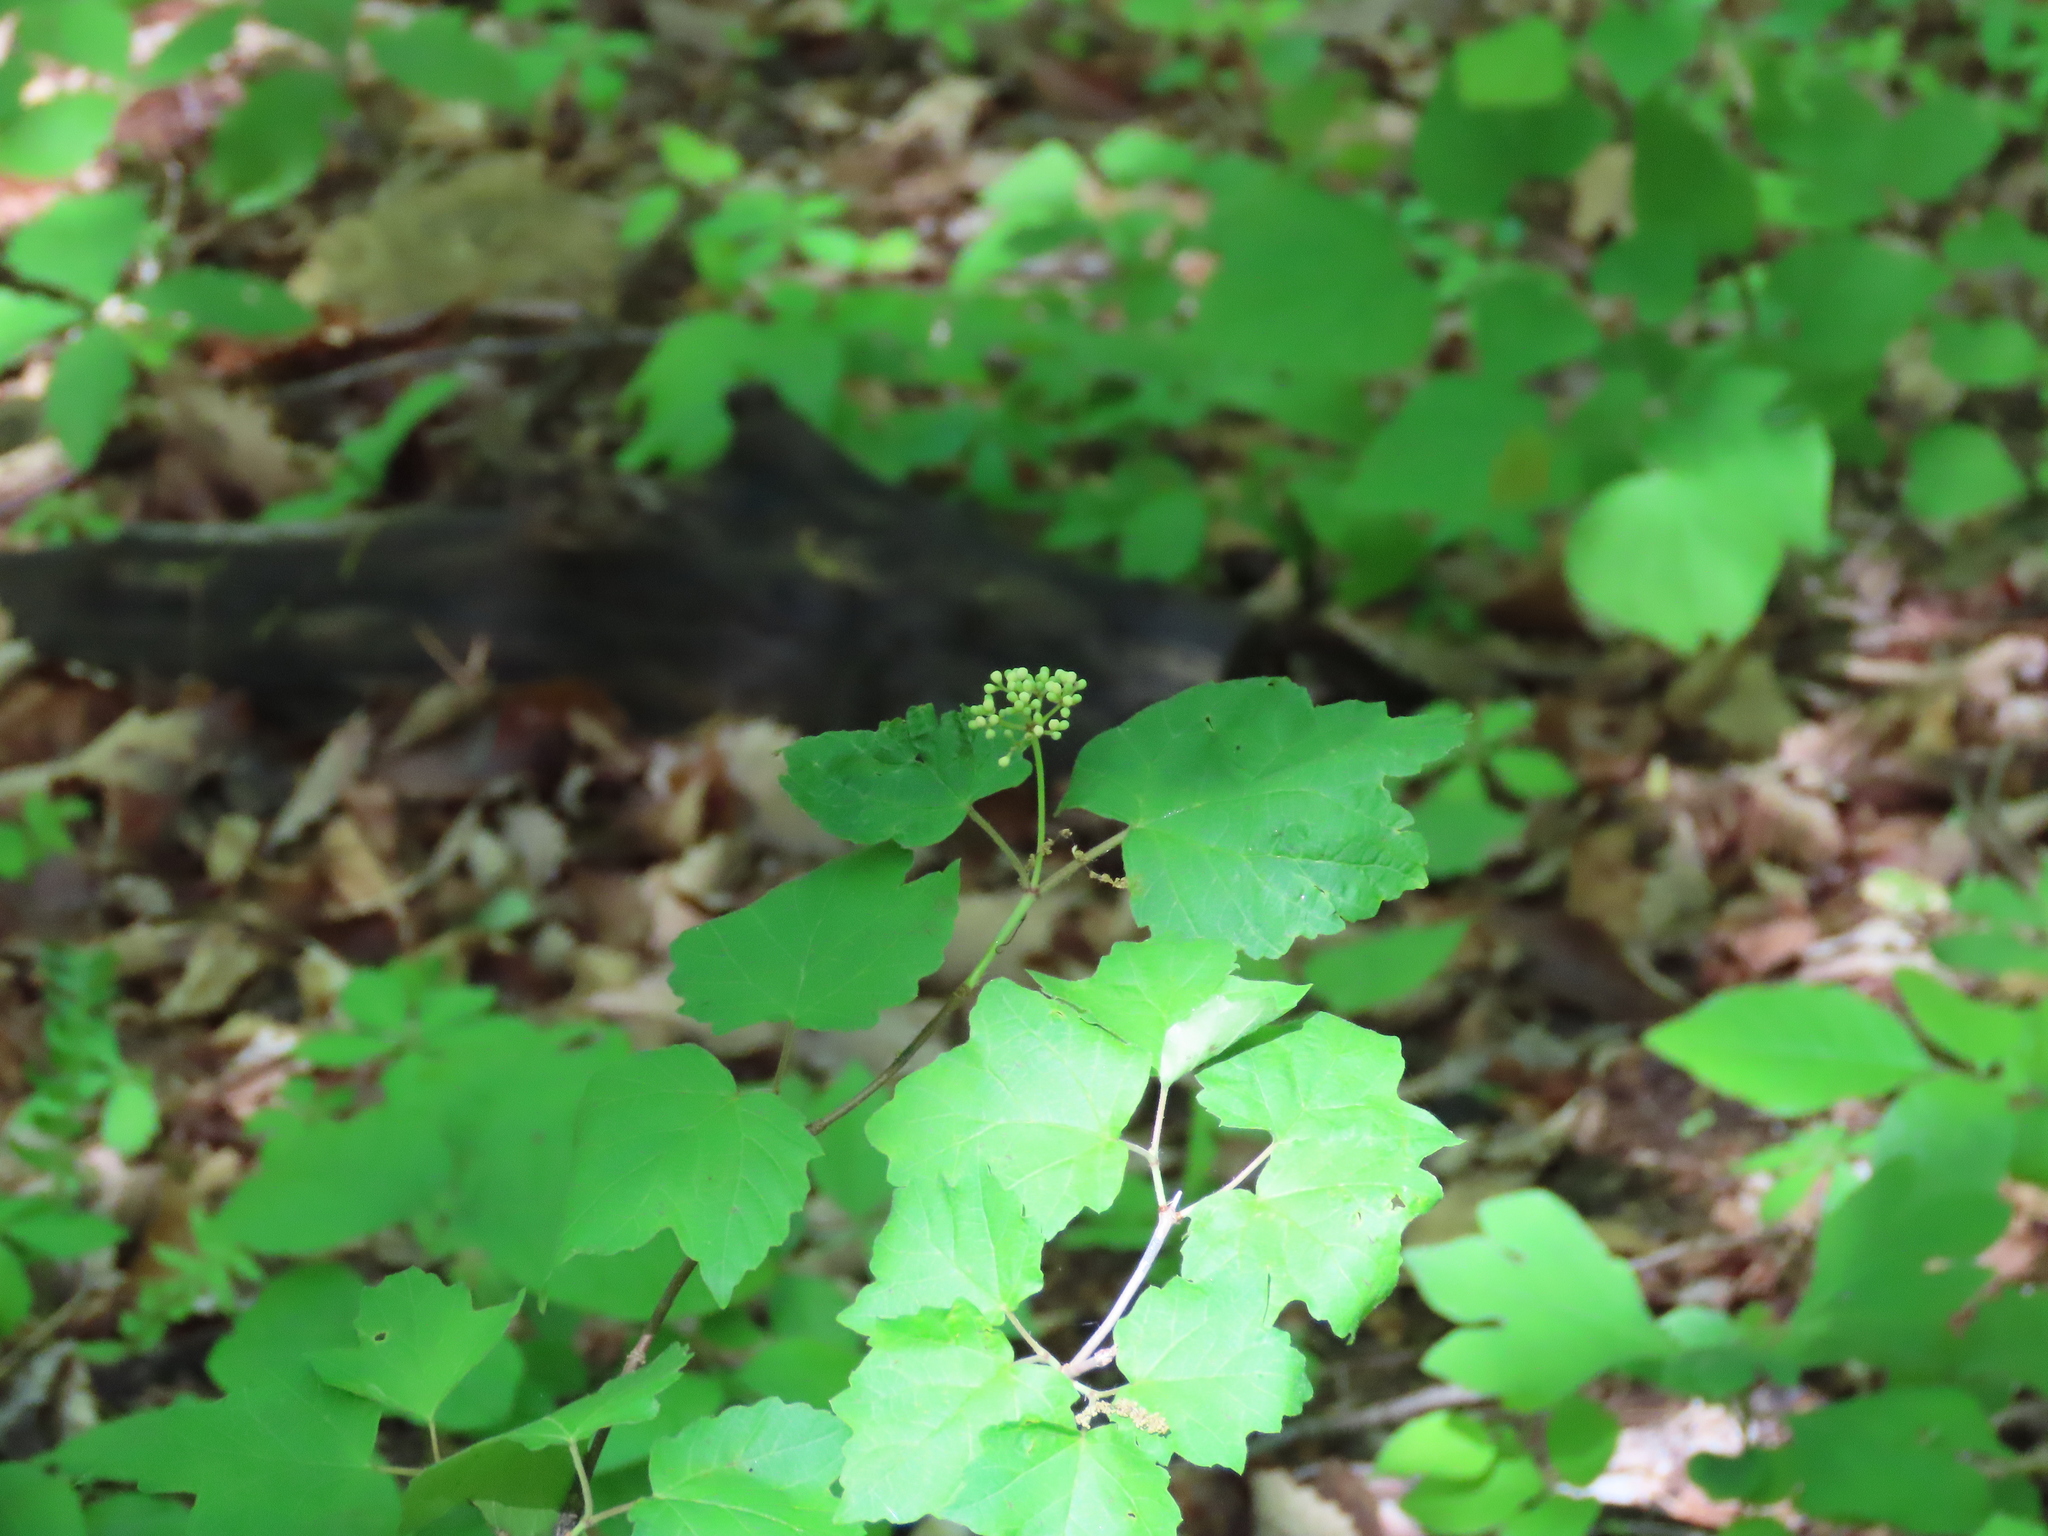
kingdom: Plantae
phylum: Tracheophyta
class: Magnoliopsida
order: Dipsacales
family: Viburnaceae
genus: Viburnum
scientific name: Viburnum acerifolium
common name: Dockmackie
